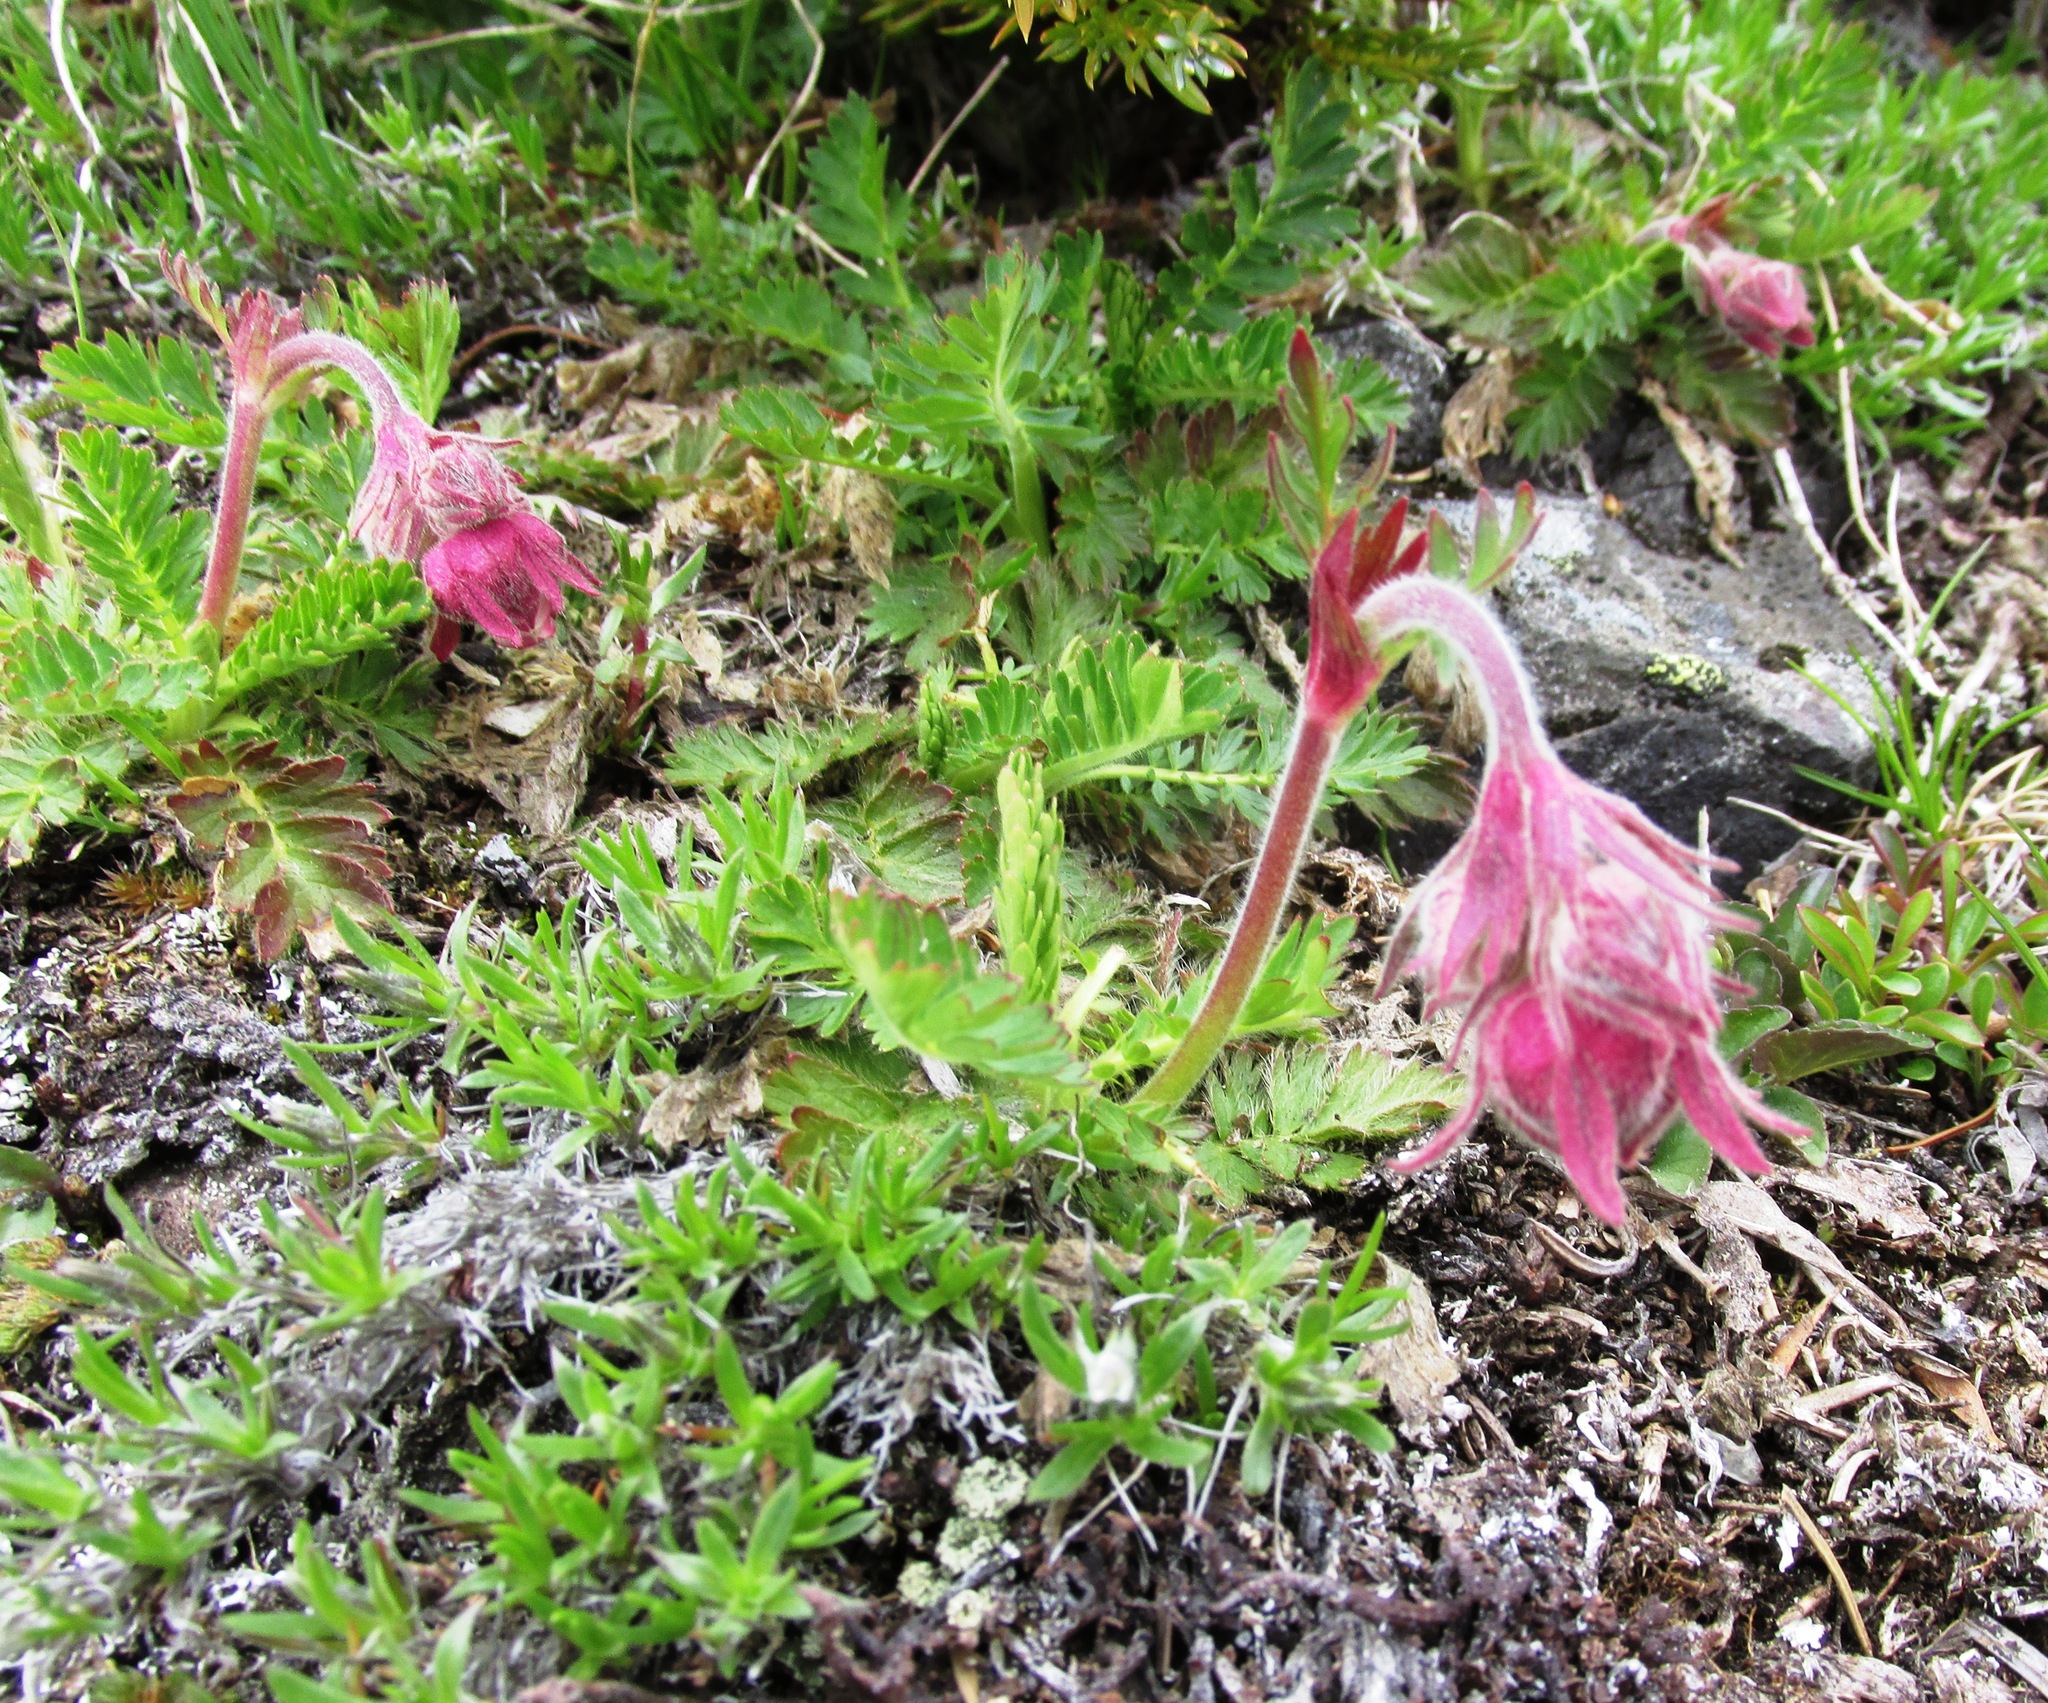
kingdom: Plantae
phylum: Tracheophyta
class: Magnoliopsida
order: Rosales
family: Rosaceae
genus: Geum
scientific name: Geum triflorum
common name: Old man's whiskers
